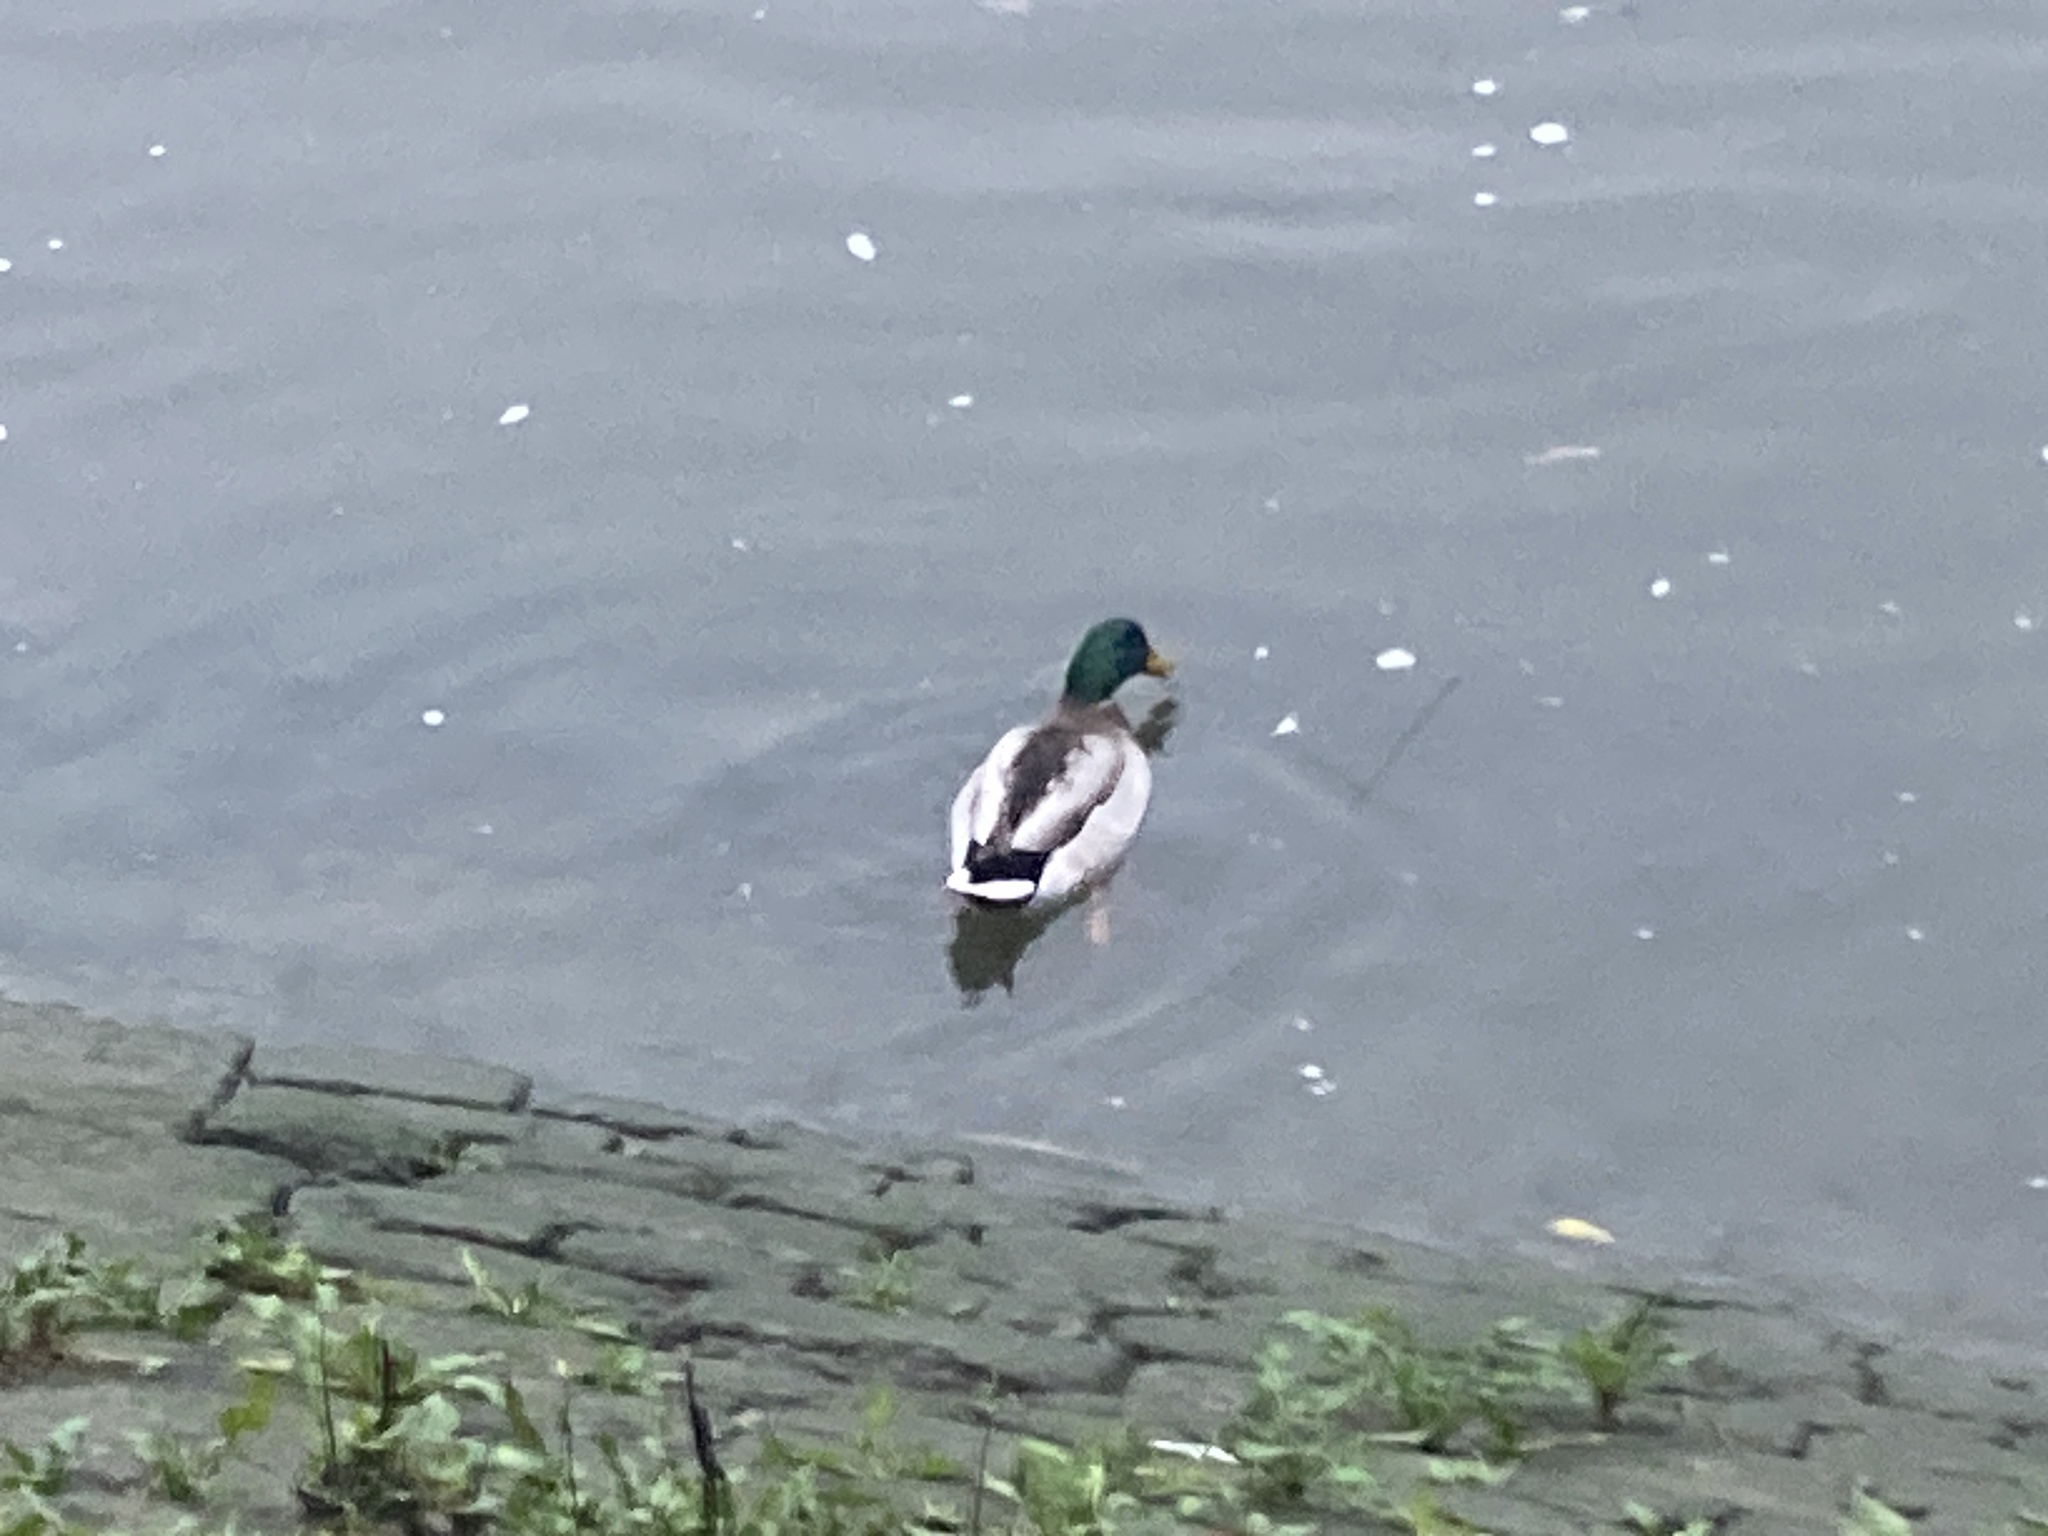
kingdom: Animalia
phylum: Chordata
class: Aves
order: Anseriformes
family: Anatidae
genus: Anas
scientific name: Anas platyrhynchos
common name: Mallard
